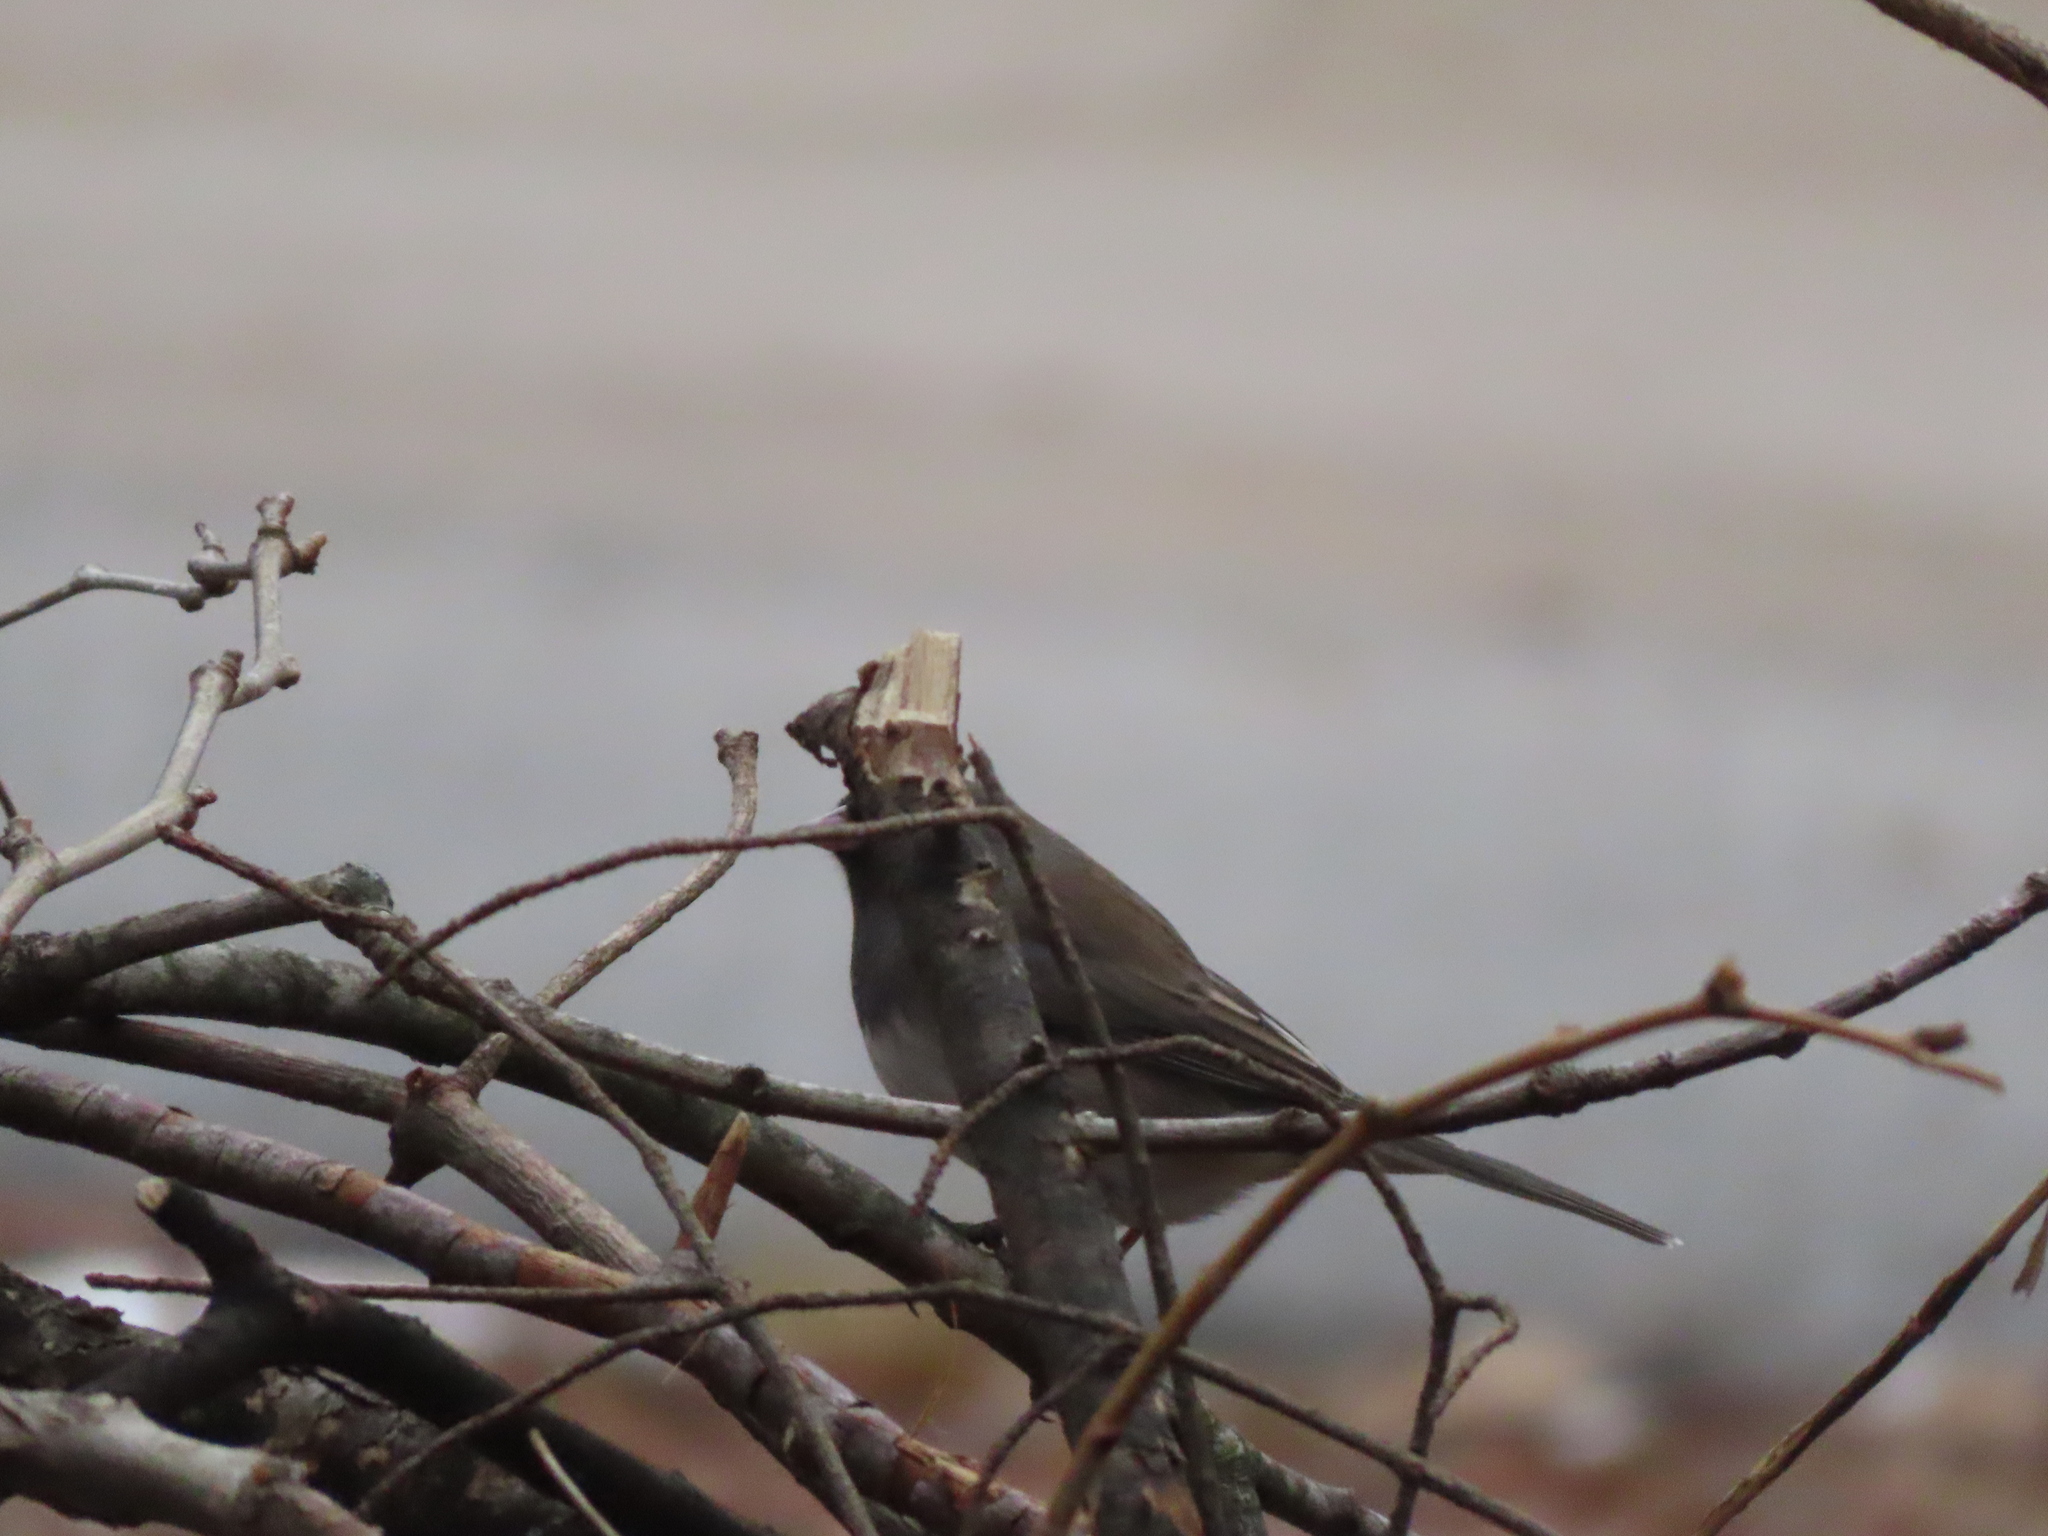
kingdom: Animalia
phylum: Chordata
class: Aves
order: Passeriformes
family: Passerellidae
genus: Junco
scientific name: Junco hyemalis
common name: Dark-eyed junco
